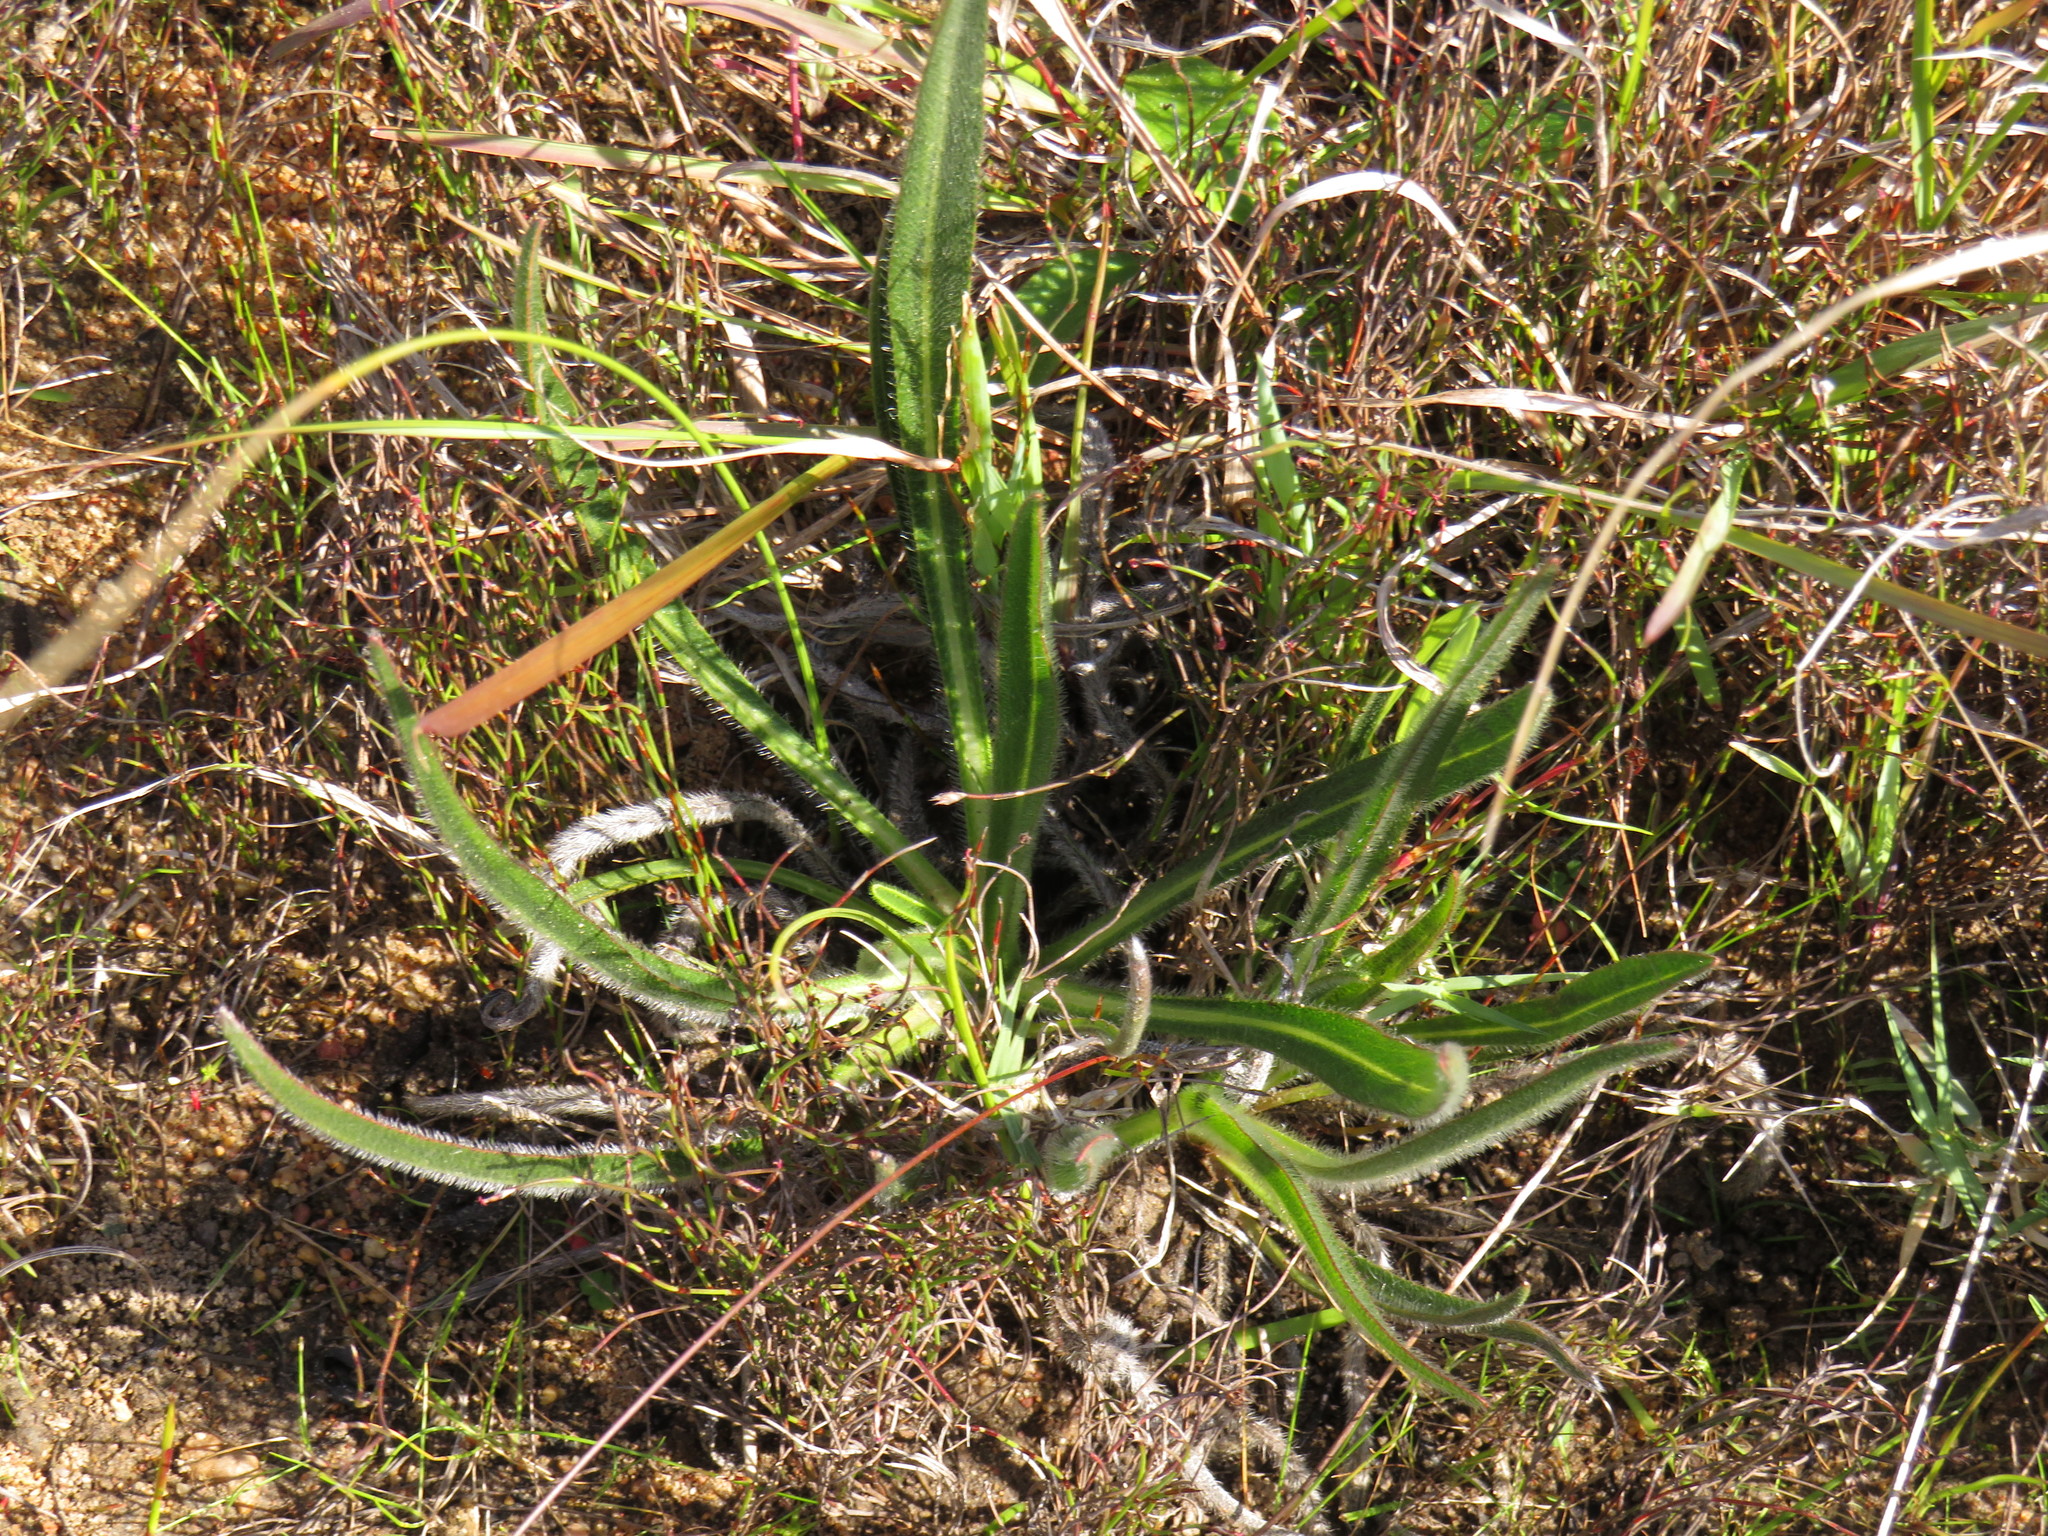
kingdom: Plantae
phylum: Tracheophyta
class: Magnoliopsida
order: Boraginales
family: Boraginaceae
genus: Lobostemon
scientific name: Lobostemon splendens
